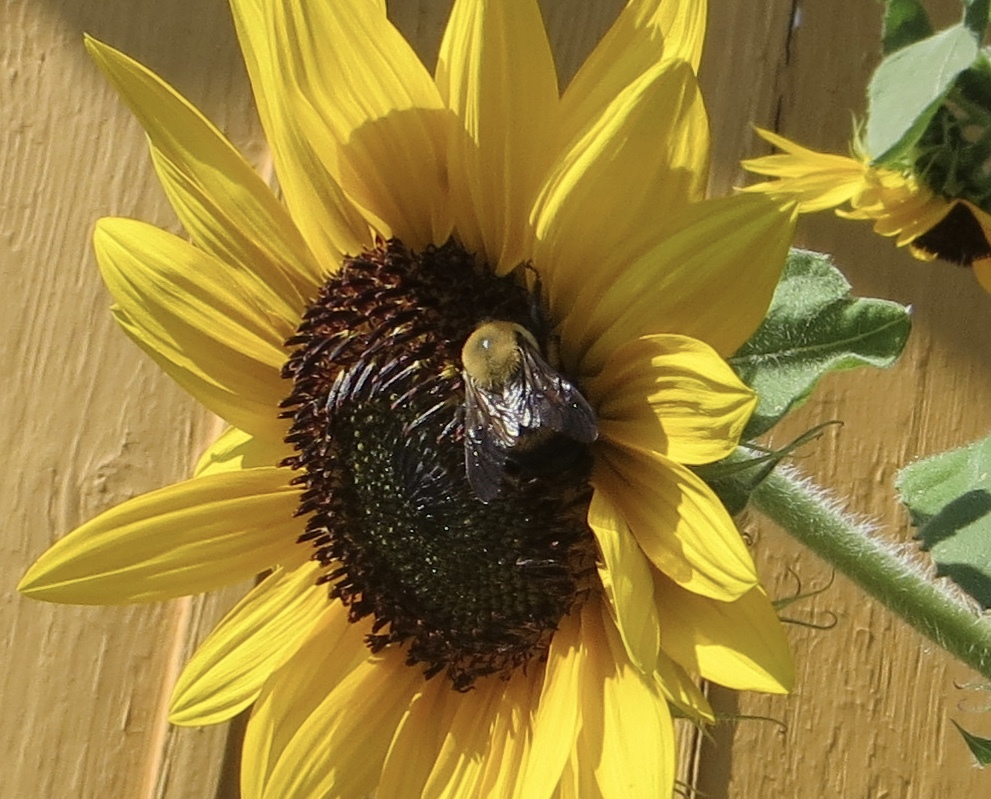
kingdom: Animalia
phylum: Arthropoda
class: Insecta
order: Hymenoptera
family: Apidae
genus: Bombus
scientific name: Bombus griseocollis
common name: Brown-belted bumble bee
